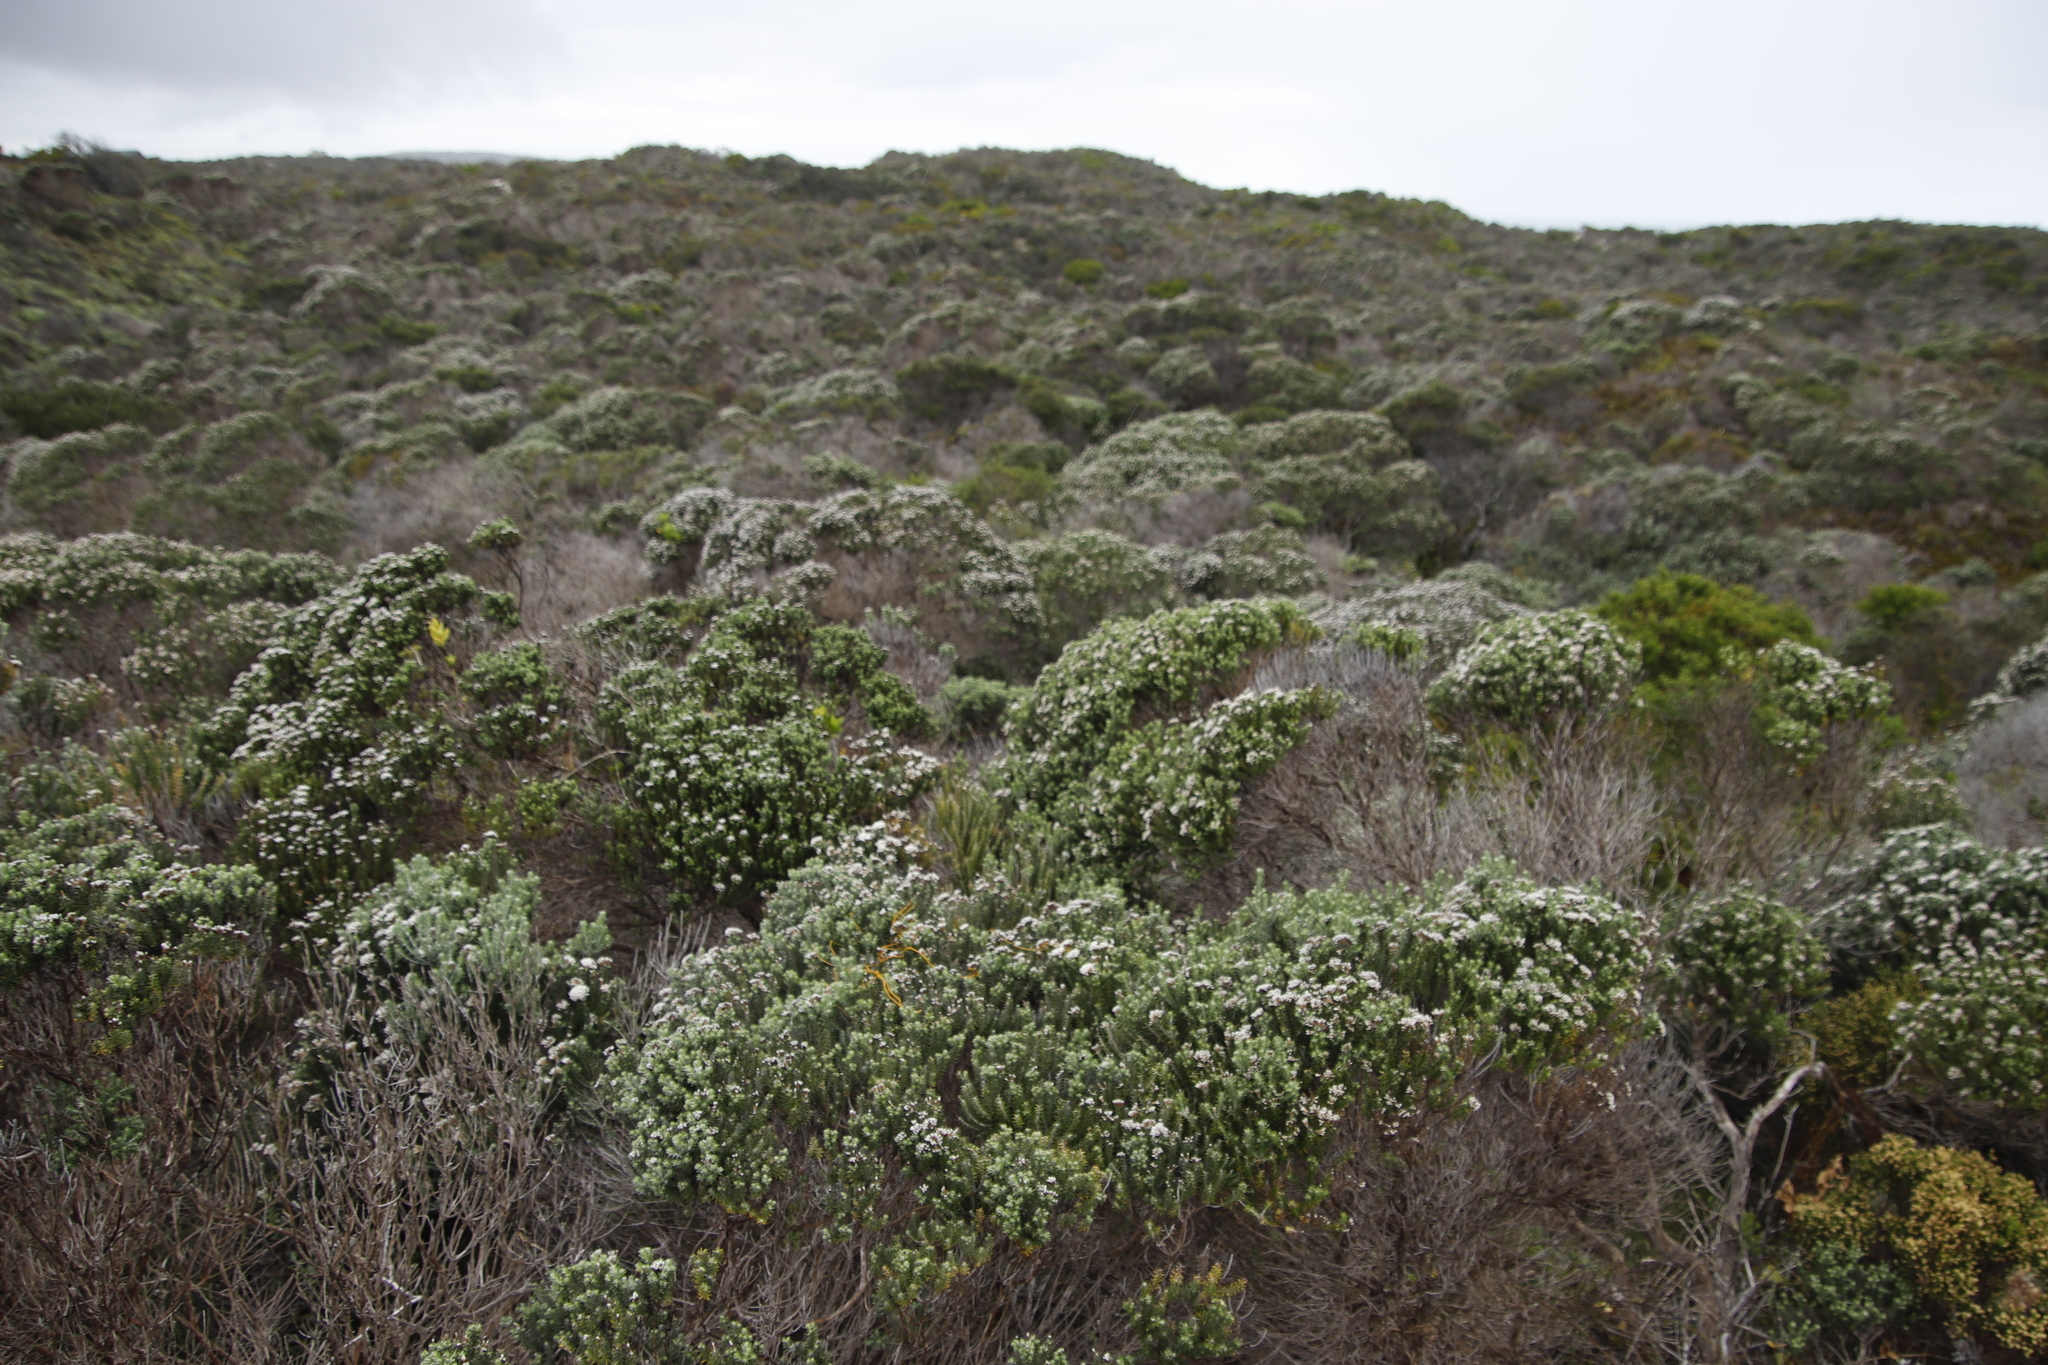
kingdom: Plantae
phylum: Tracheophyta
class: Magnoliopsida
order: Asterales
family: Asteraceae
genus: Metalasia
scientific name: Metalasia muricata
